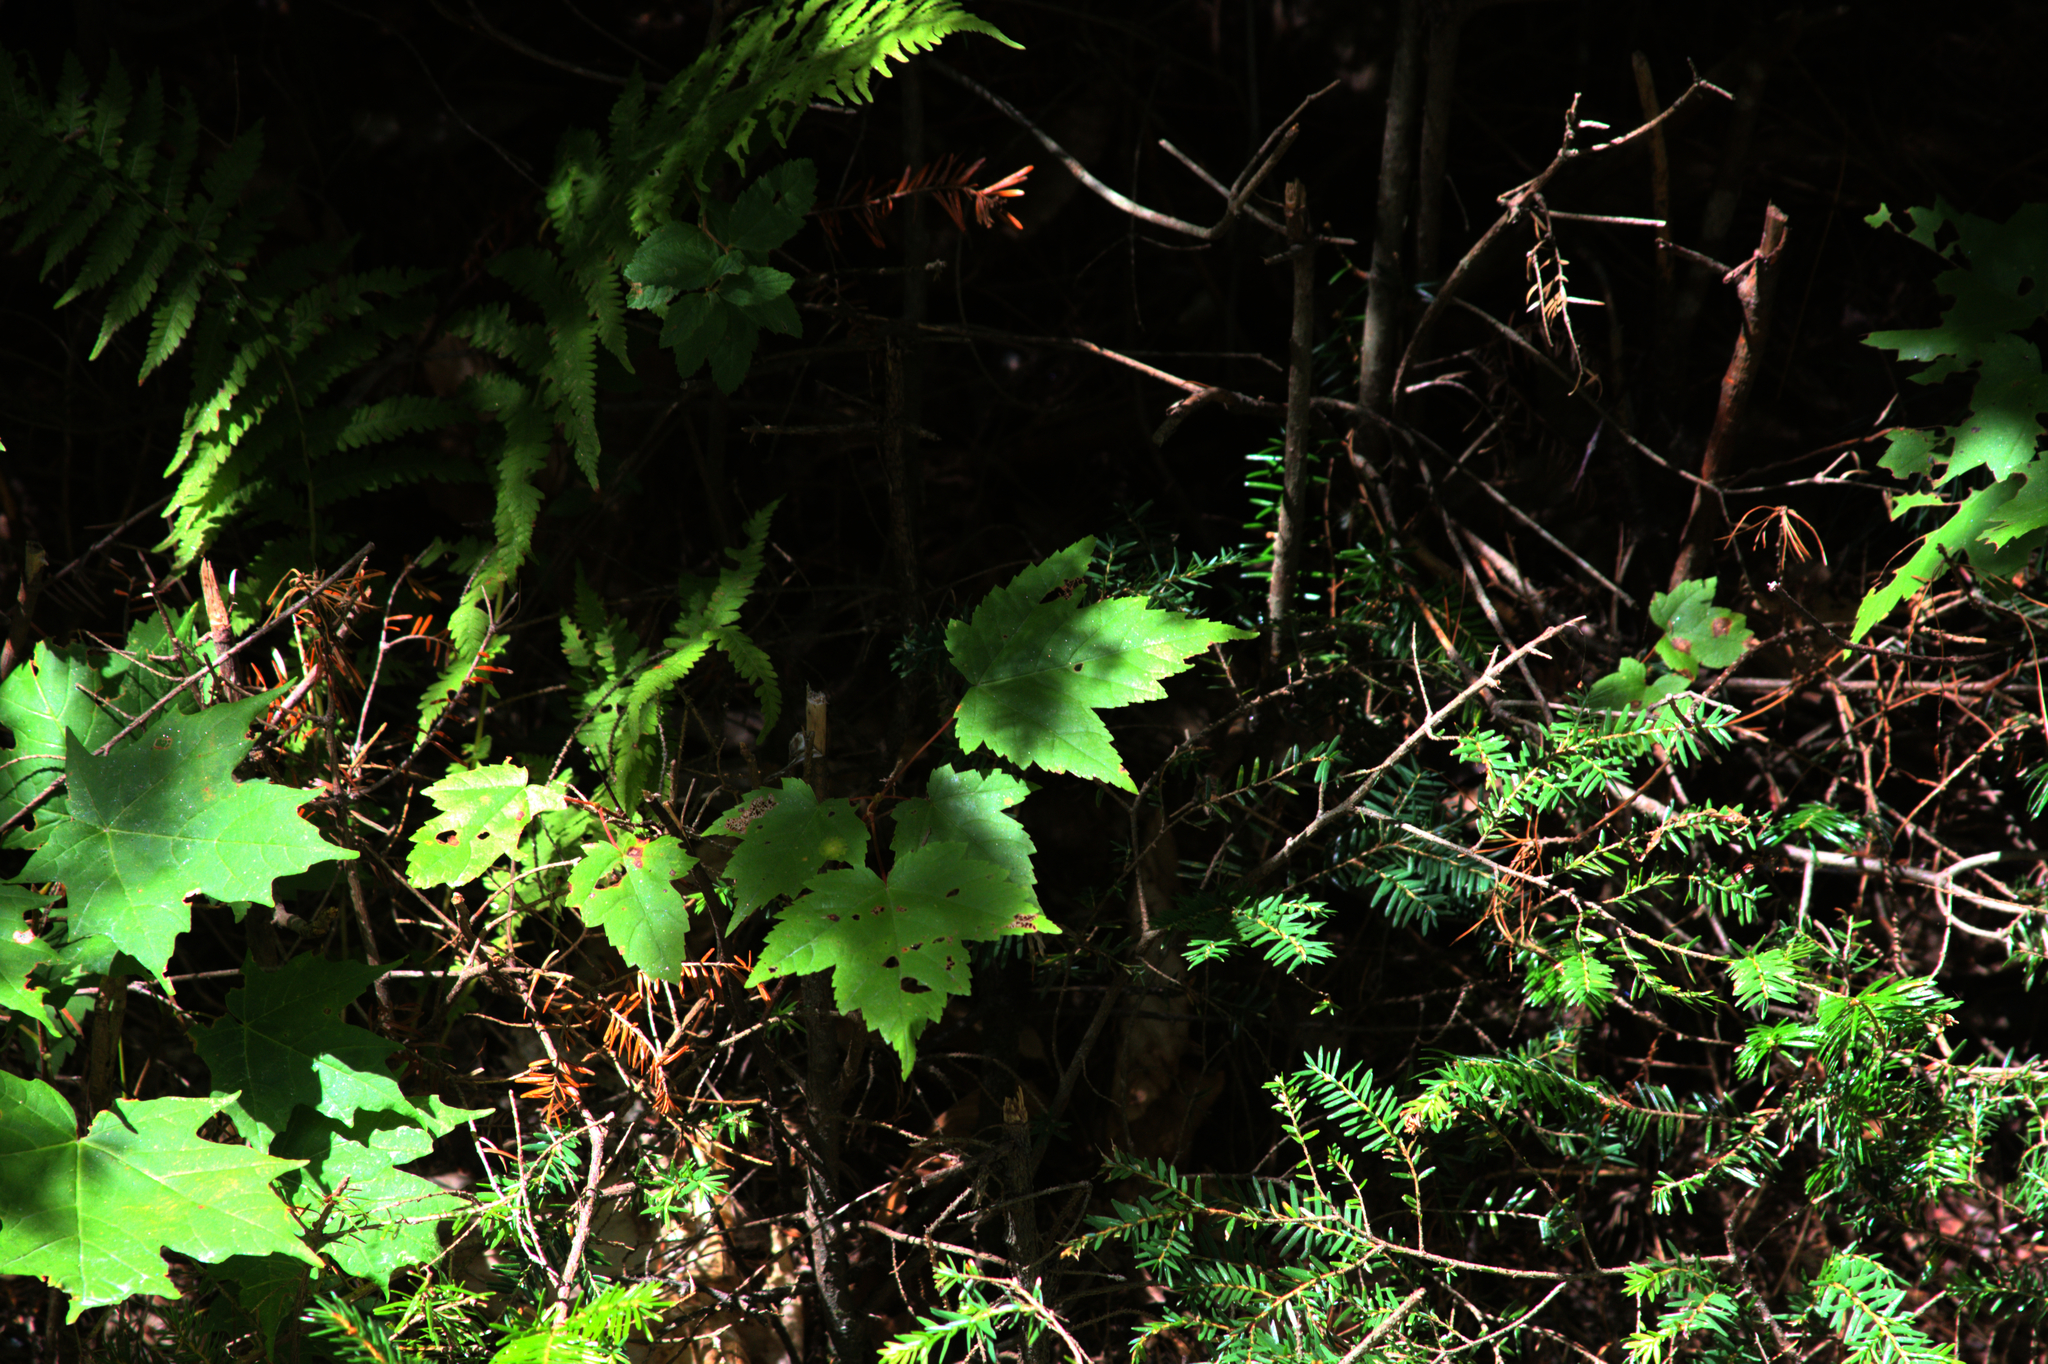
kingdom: Plantae
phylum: Tracheophyta
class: Magnoliopsida
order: Sapindales
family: Sapindaceae
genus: Acer
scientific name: Acer rubrum
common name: Red maple
